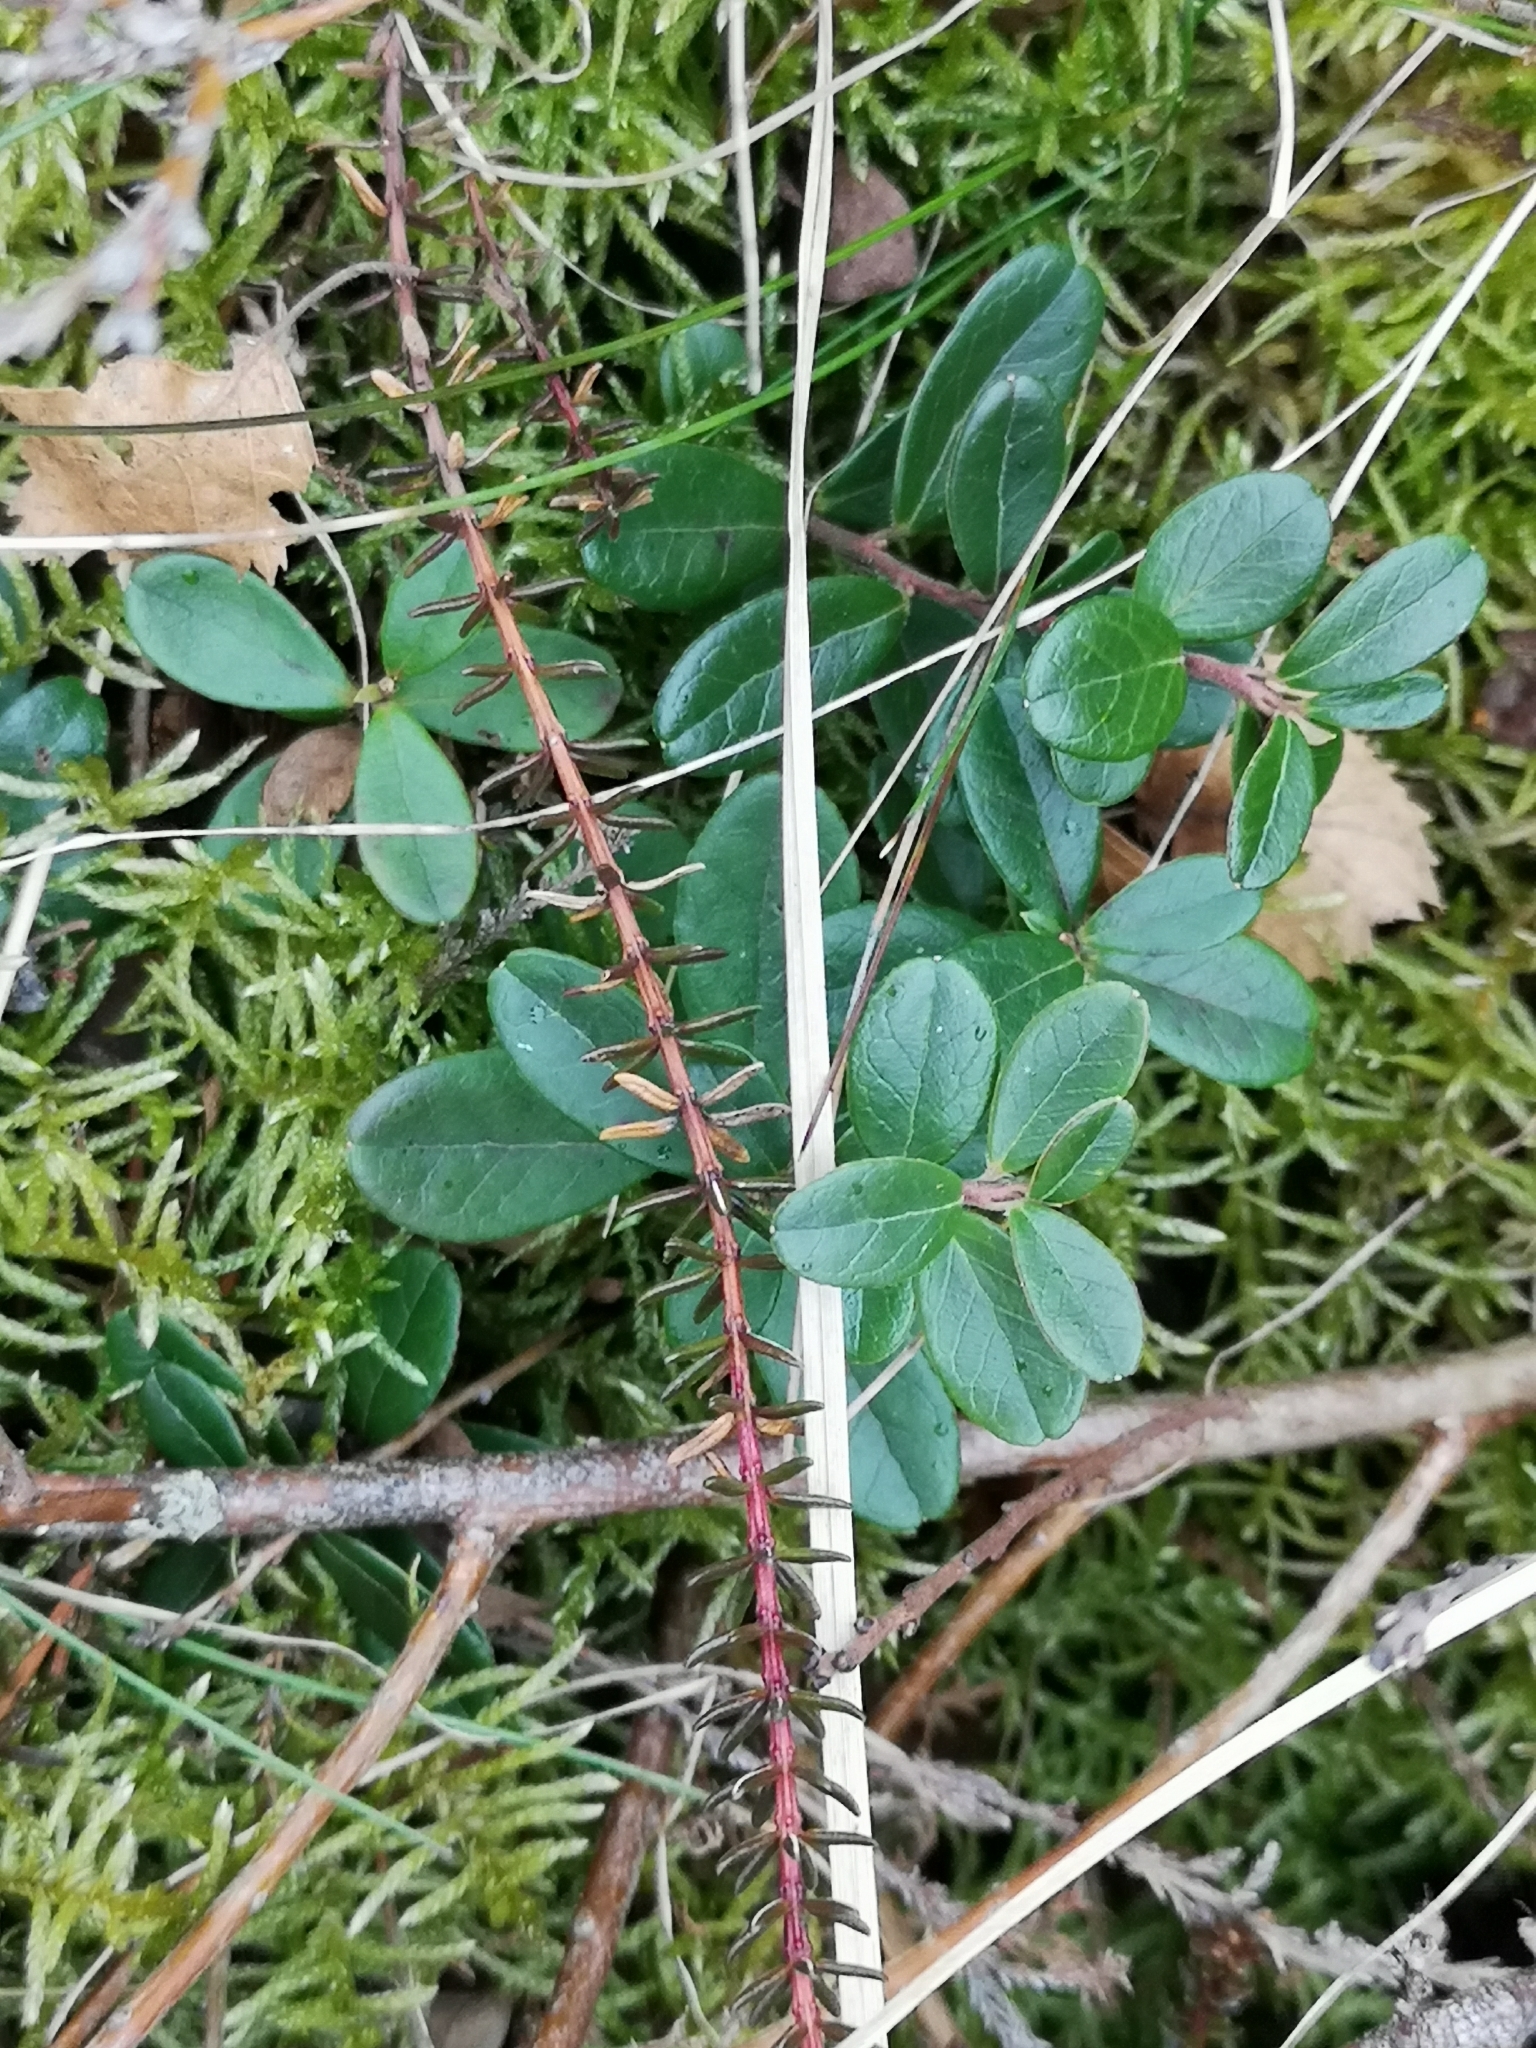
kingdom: Plantae
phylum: Tracheophyta
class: Magnoliopsida
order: Ericales
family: Ericaceae
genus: Vaccinium
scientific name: Vaccinium vitis-idaea
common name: Cowberry
